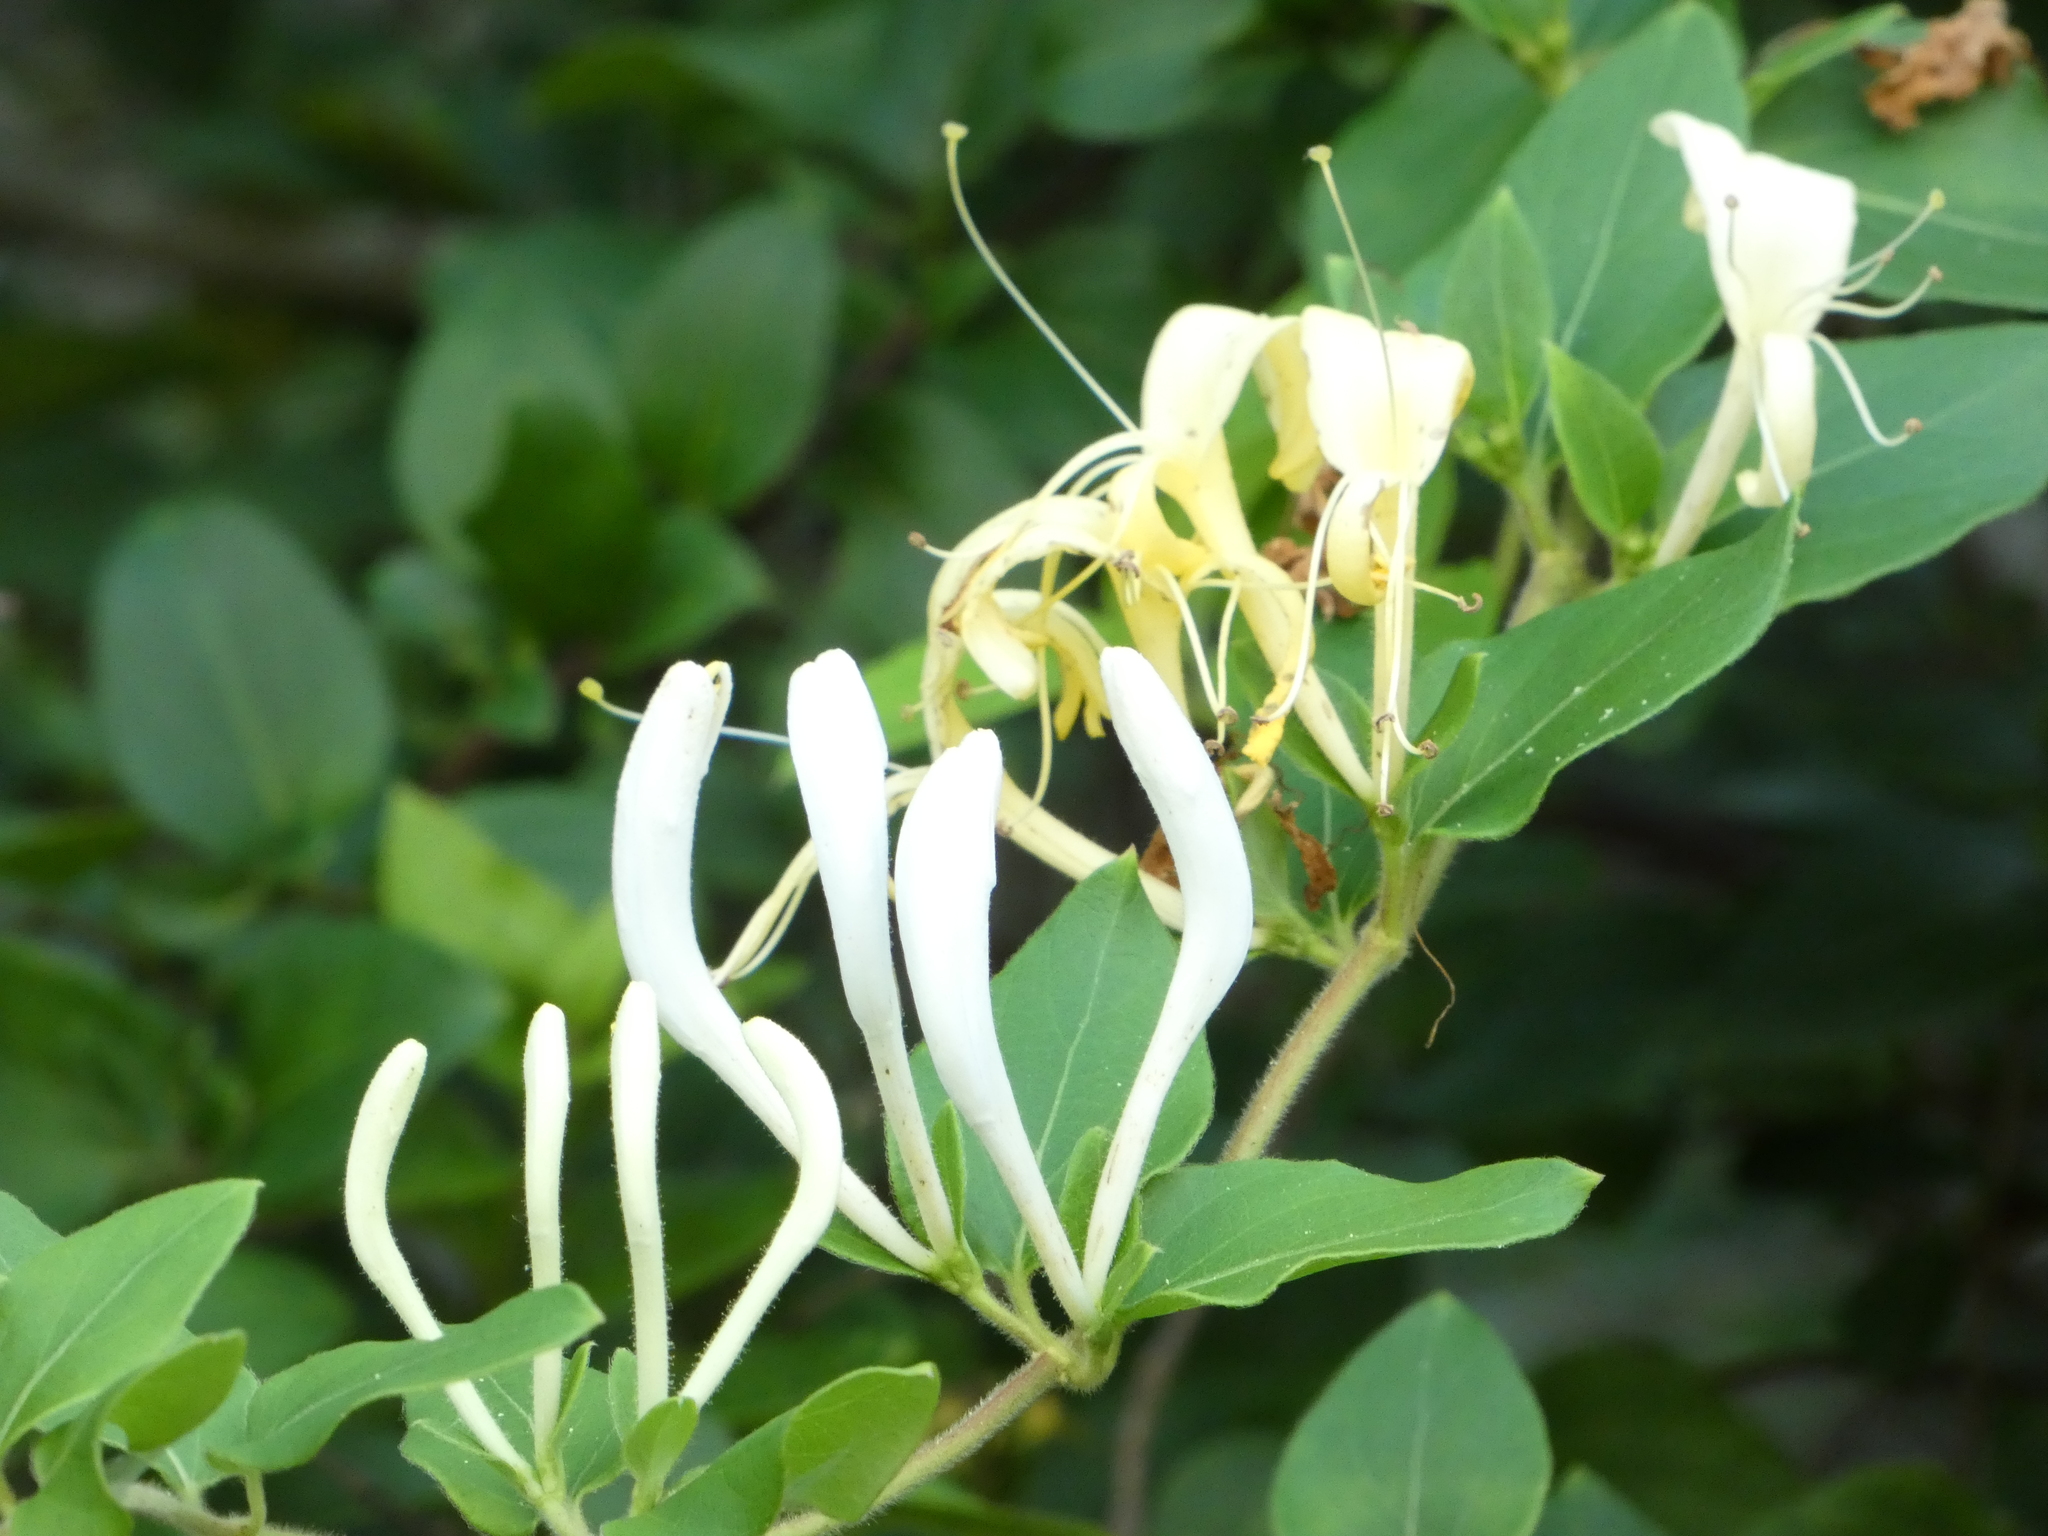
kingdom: Plantae
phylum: Tracheophyta
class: Magnoliopsida
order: Dipsacales
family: Caprifoliaceae
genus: Lonicera
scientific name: Lonicera japonica
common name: Japanese honeysuckle
